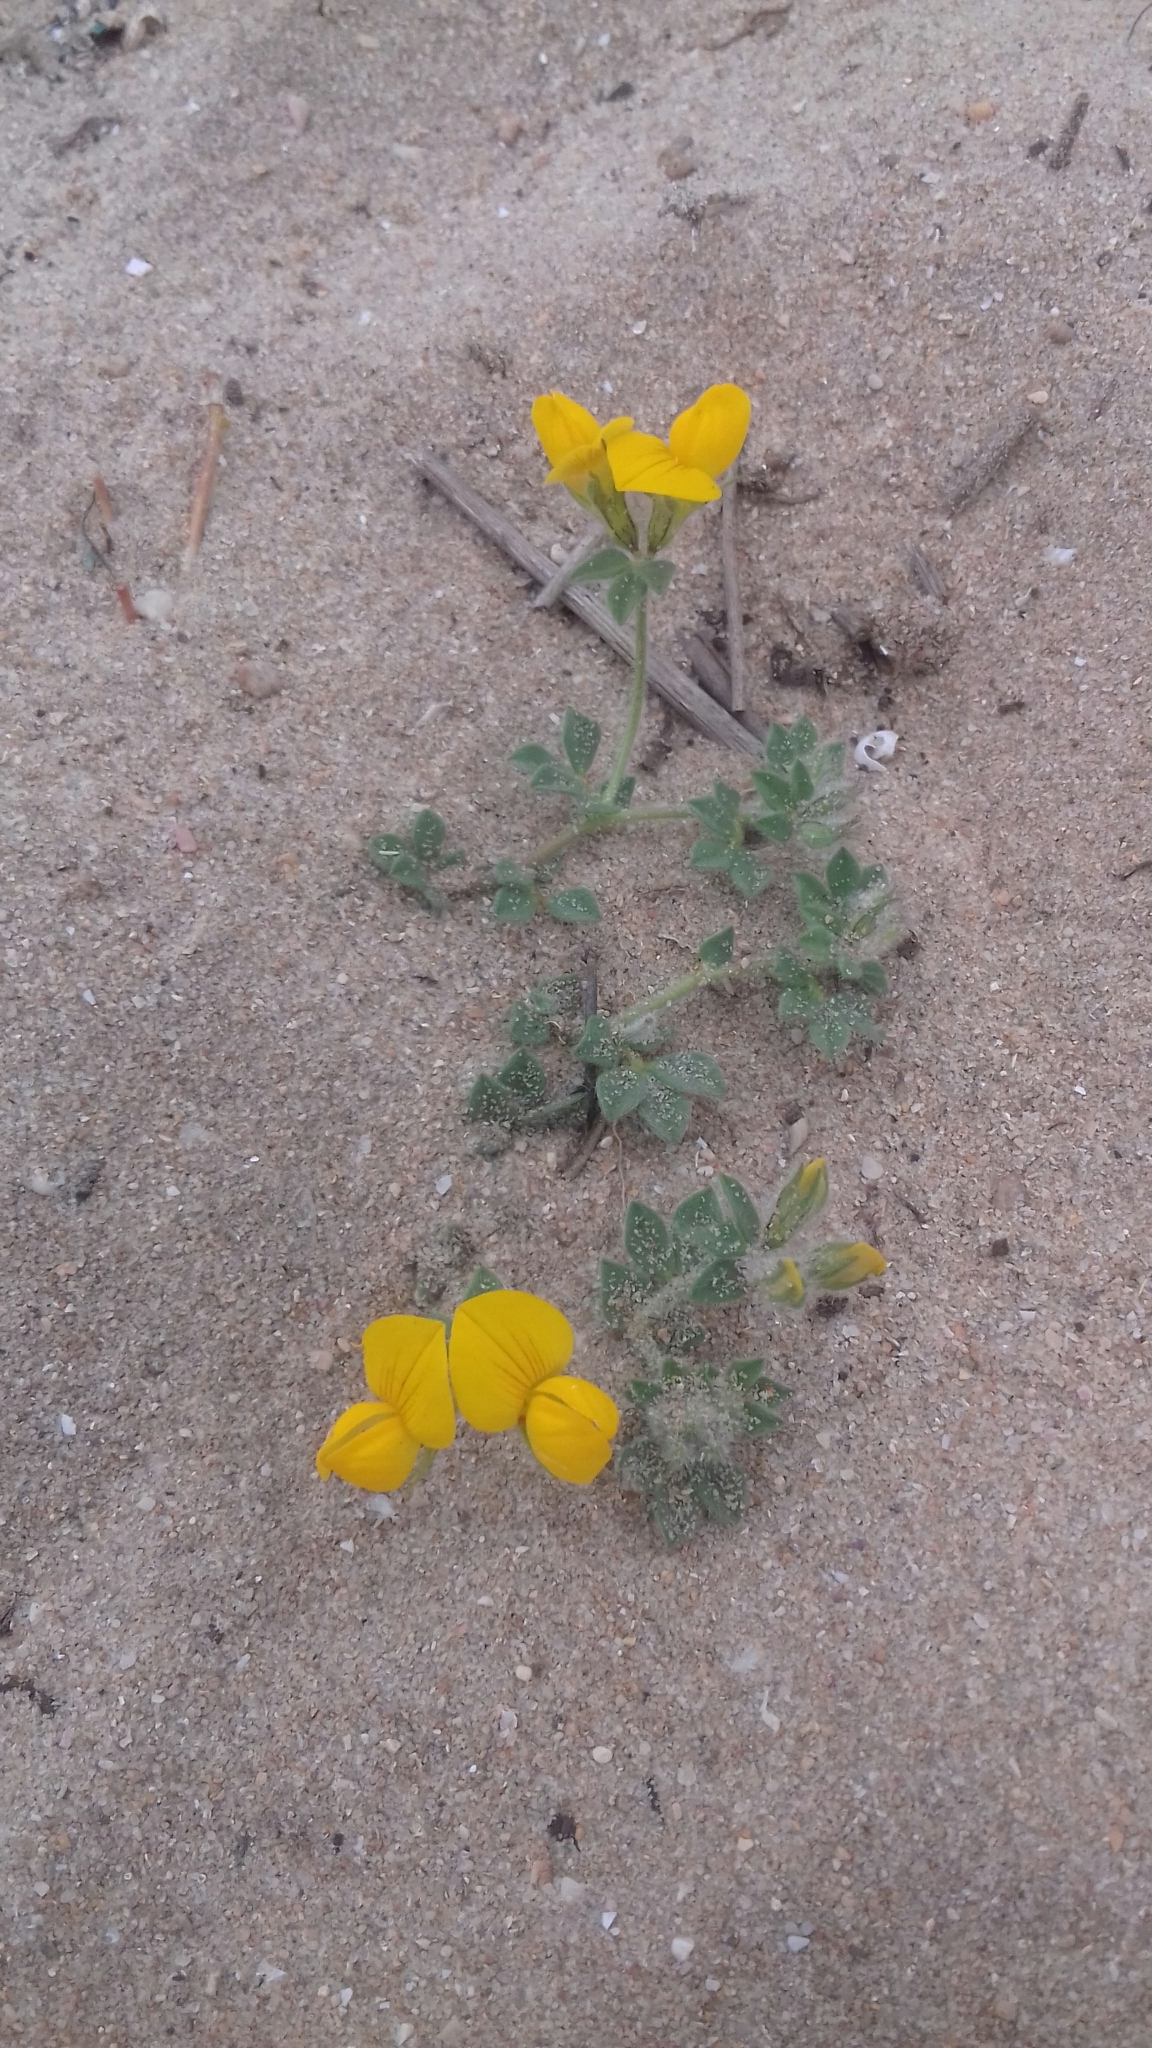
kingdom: Plantae
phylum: Tracheophyta
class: Magnoliopsida
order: Fabales
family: Fabaceae
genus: Lotus
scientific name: Lotus creticus
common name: Cretan bird's-foot trefoil
